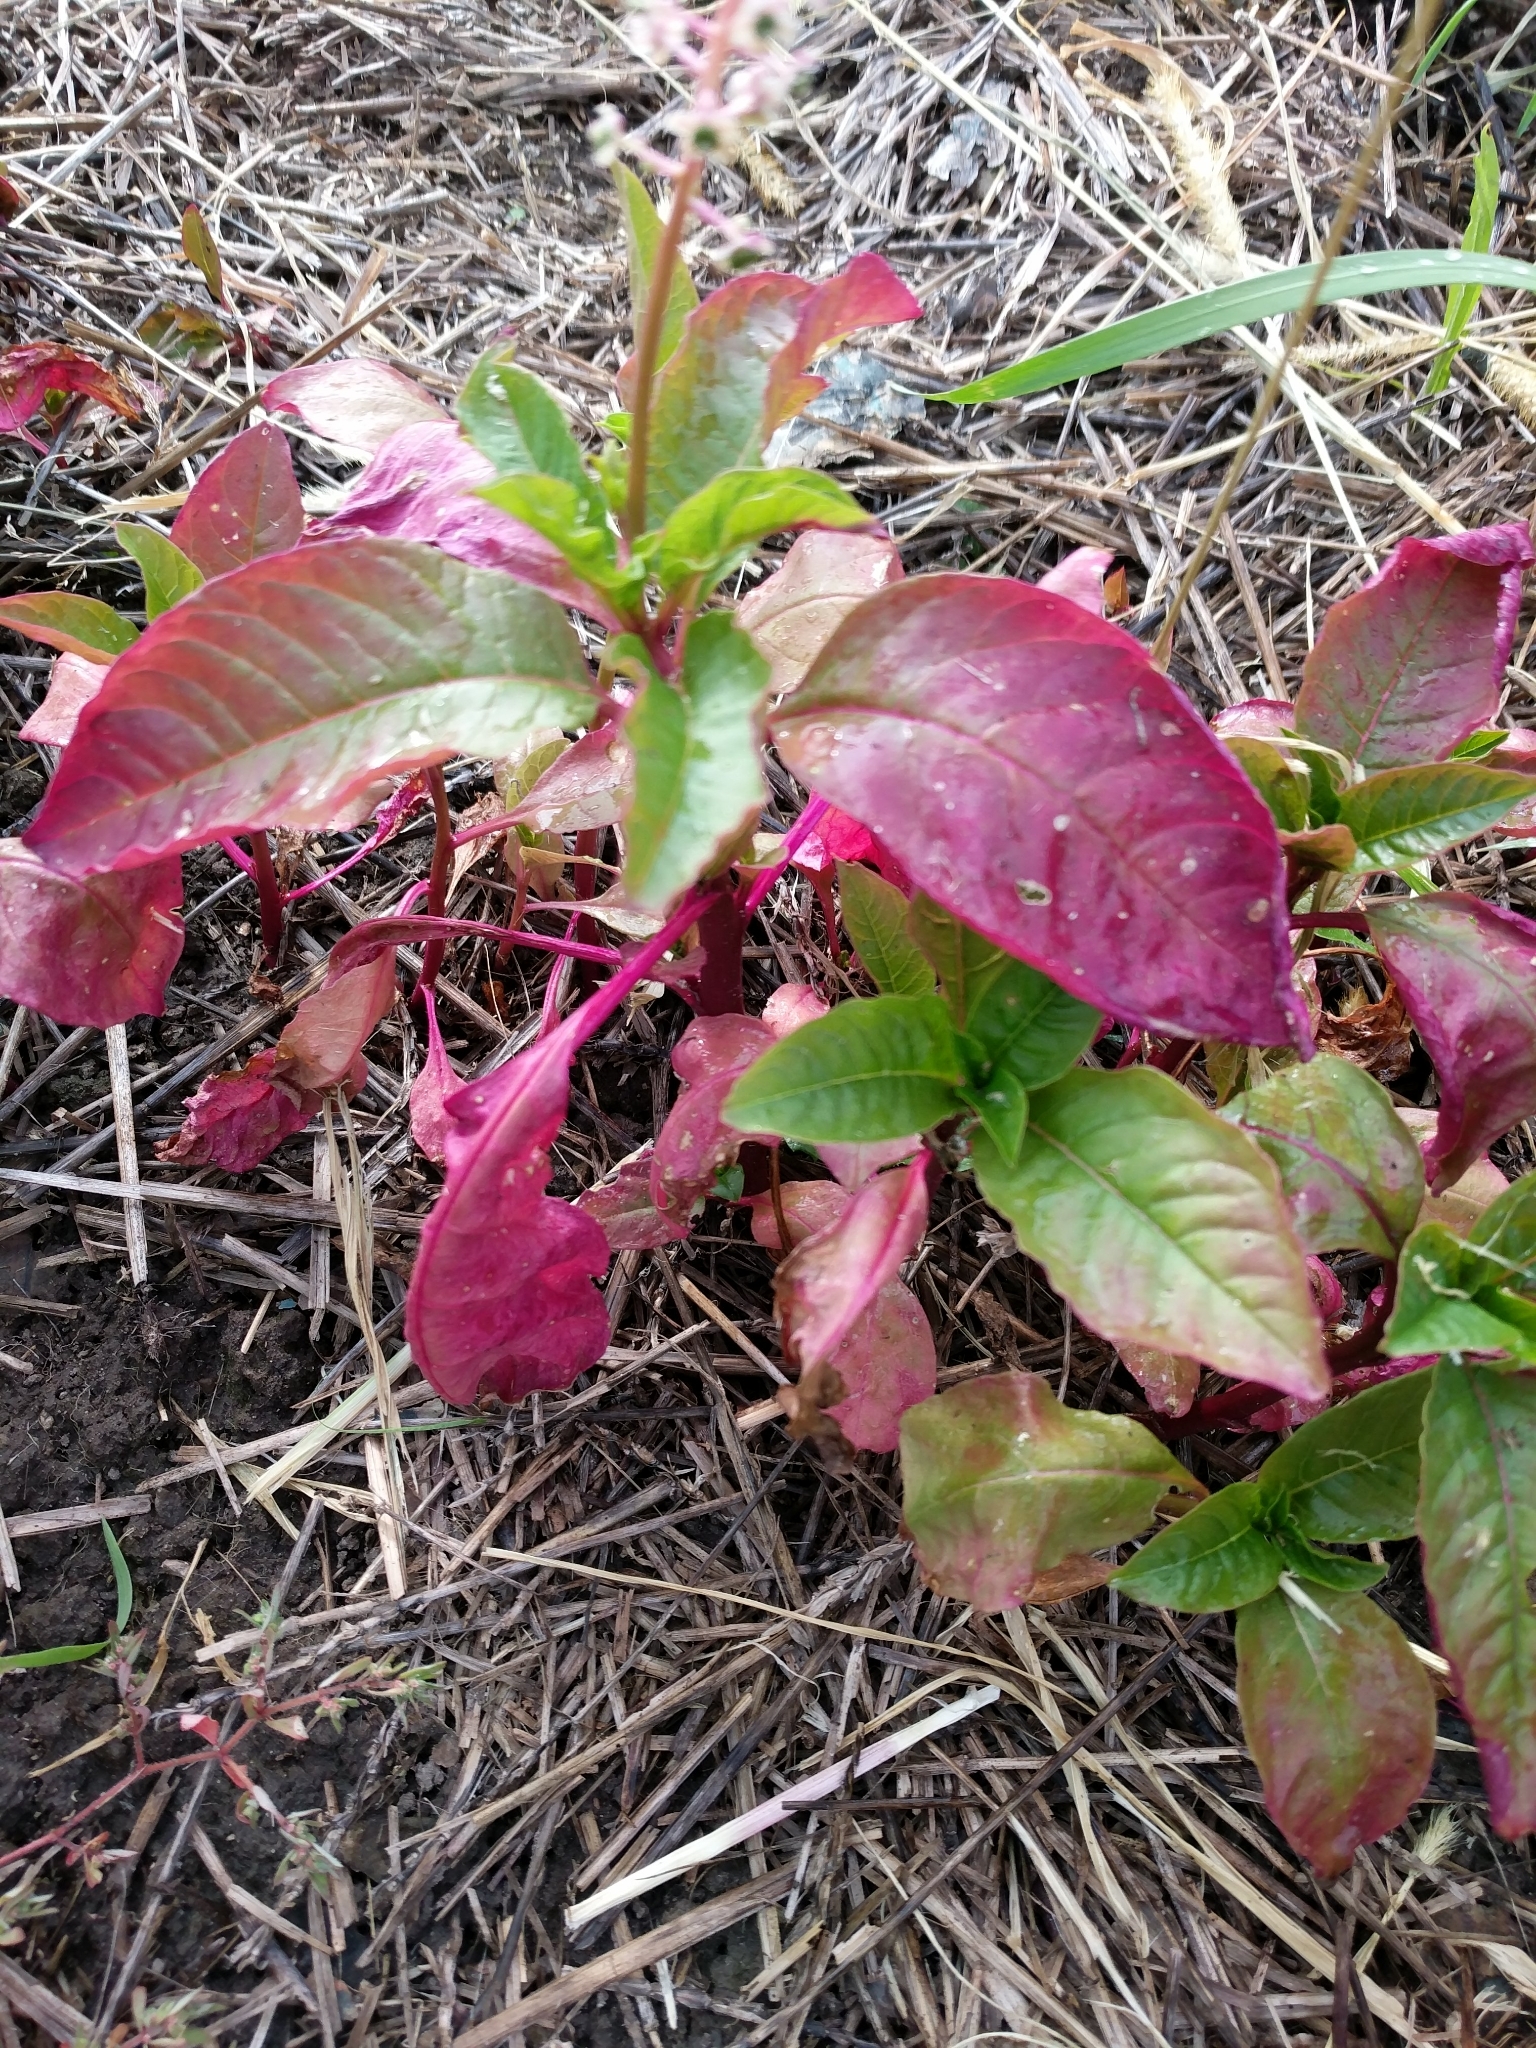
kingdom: Plantae
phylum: Tracheophyta
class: Magnoliopsida
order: Caryophyllales
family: Phytolaccaceae
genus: Phytolacca
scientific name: Phytolacca americana
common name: American pokeweed
